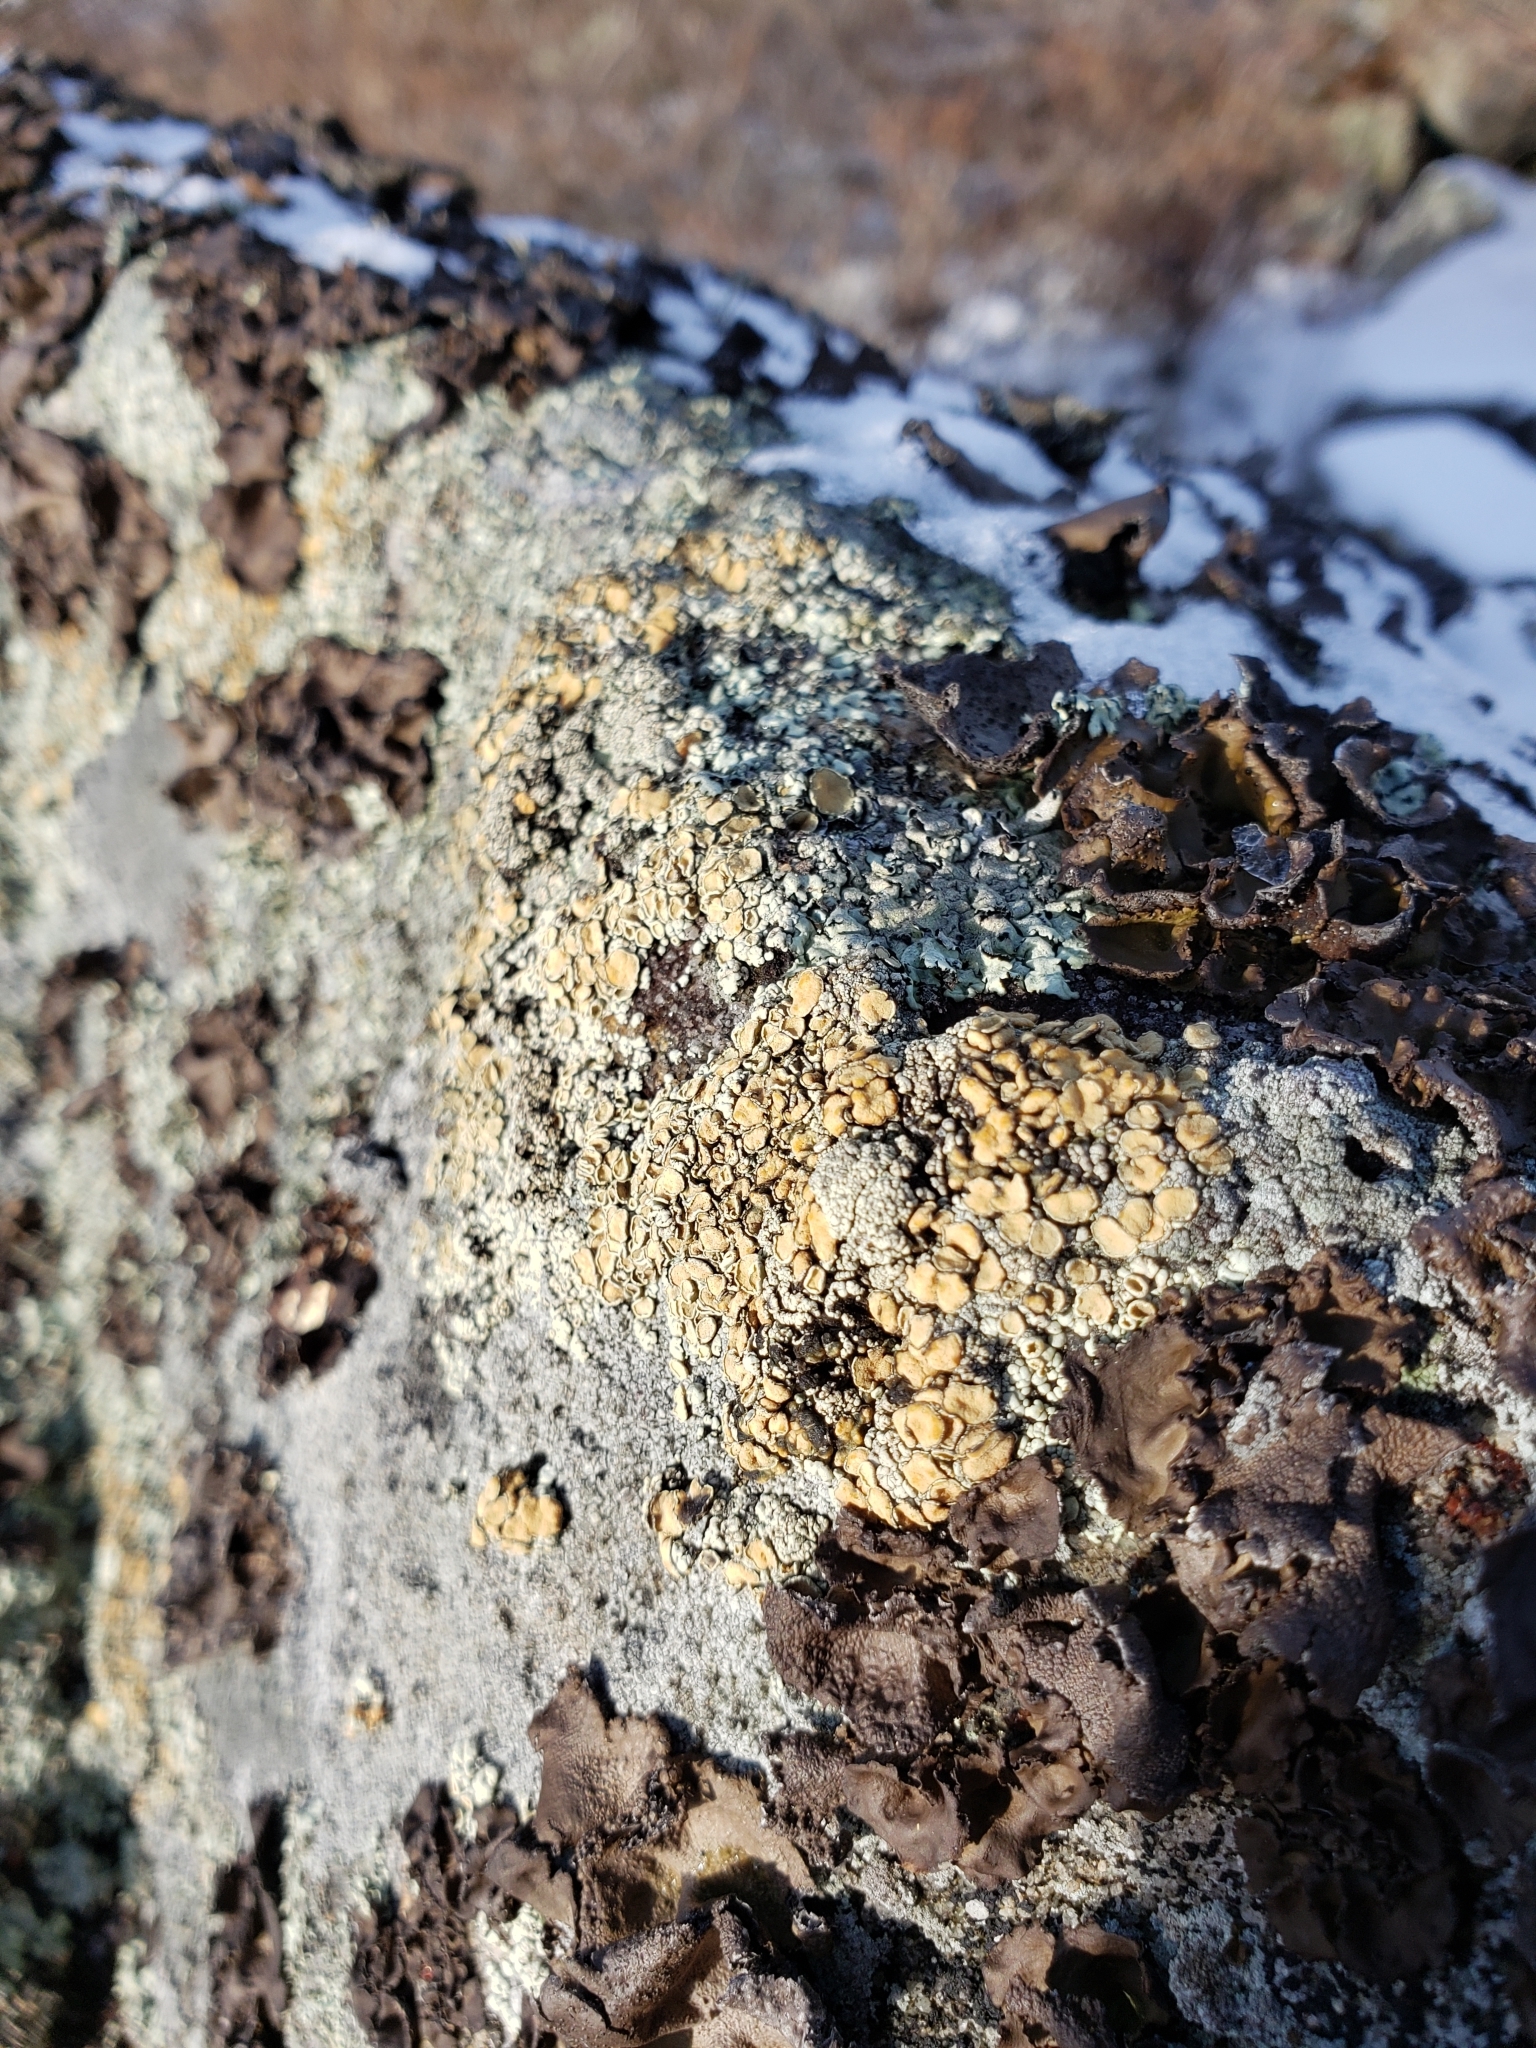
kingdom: Fungi
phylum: Ascomycota
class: Lecanoromycetes
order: Lecanorales
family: Lecanoraceae
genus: Sedelnikovaea
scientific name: Sedelnikovaea subdiscrepans
